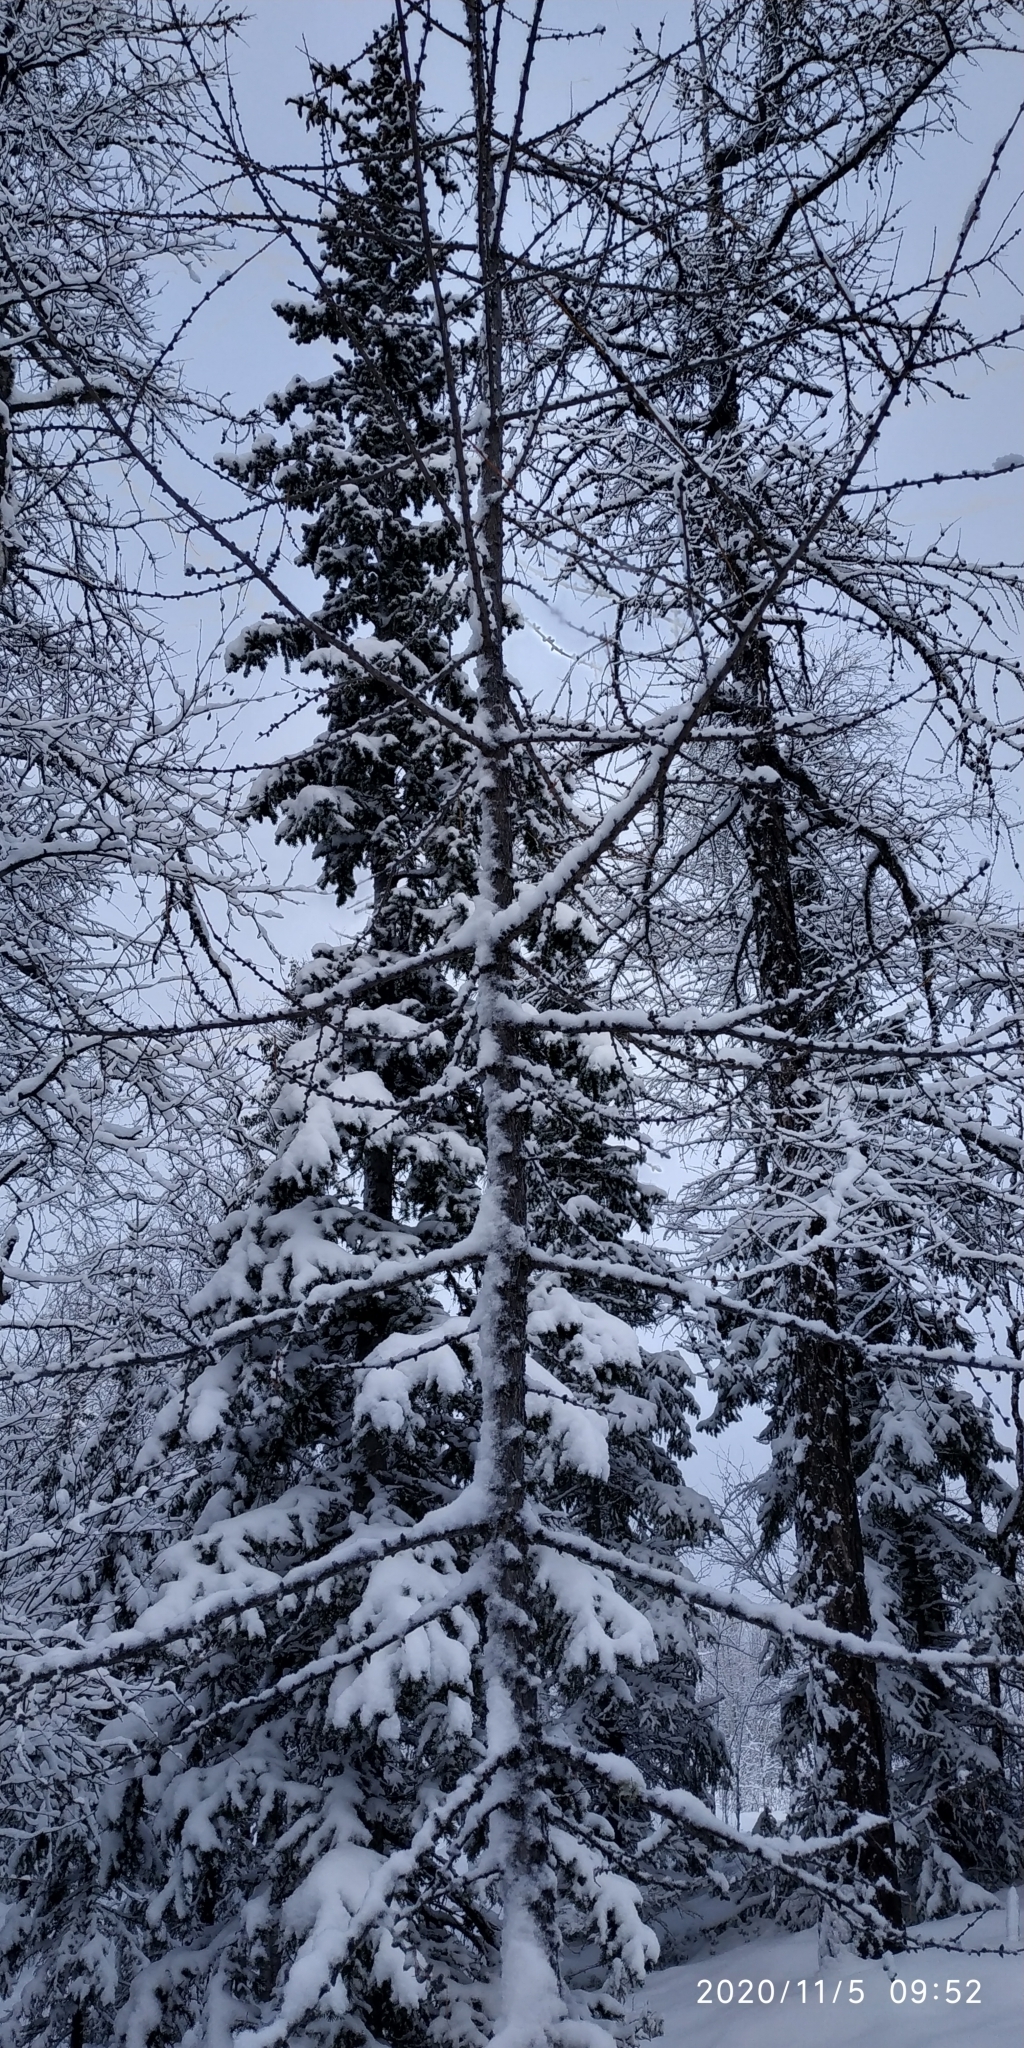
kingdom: Plantae
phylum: Tracheophyta
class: Pinopsida
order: Pinales
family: Pinaceae
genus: Larix
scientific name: Larix sibirica
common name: Siberian larch
